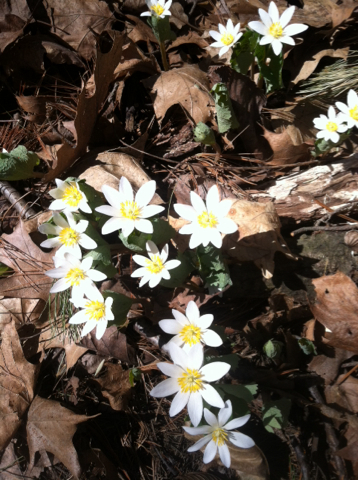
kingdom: Plantae
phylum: Tracheophyta
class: Magnoliopsida
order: Ranunculales
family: Papaveraceae
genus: Sanguinaria
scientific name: Sanguinaria canadensis
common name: Bloodroot
